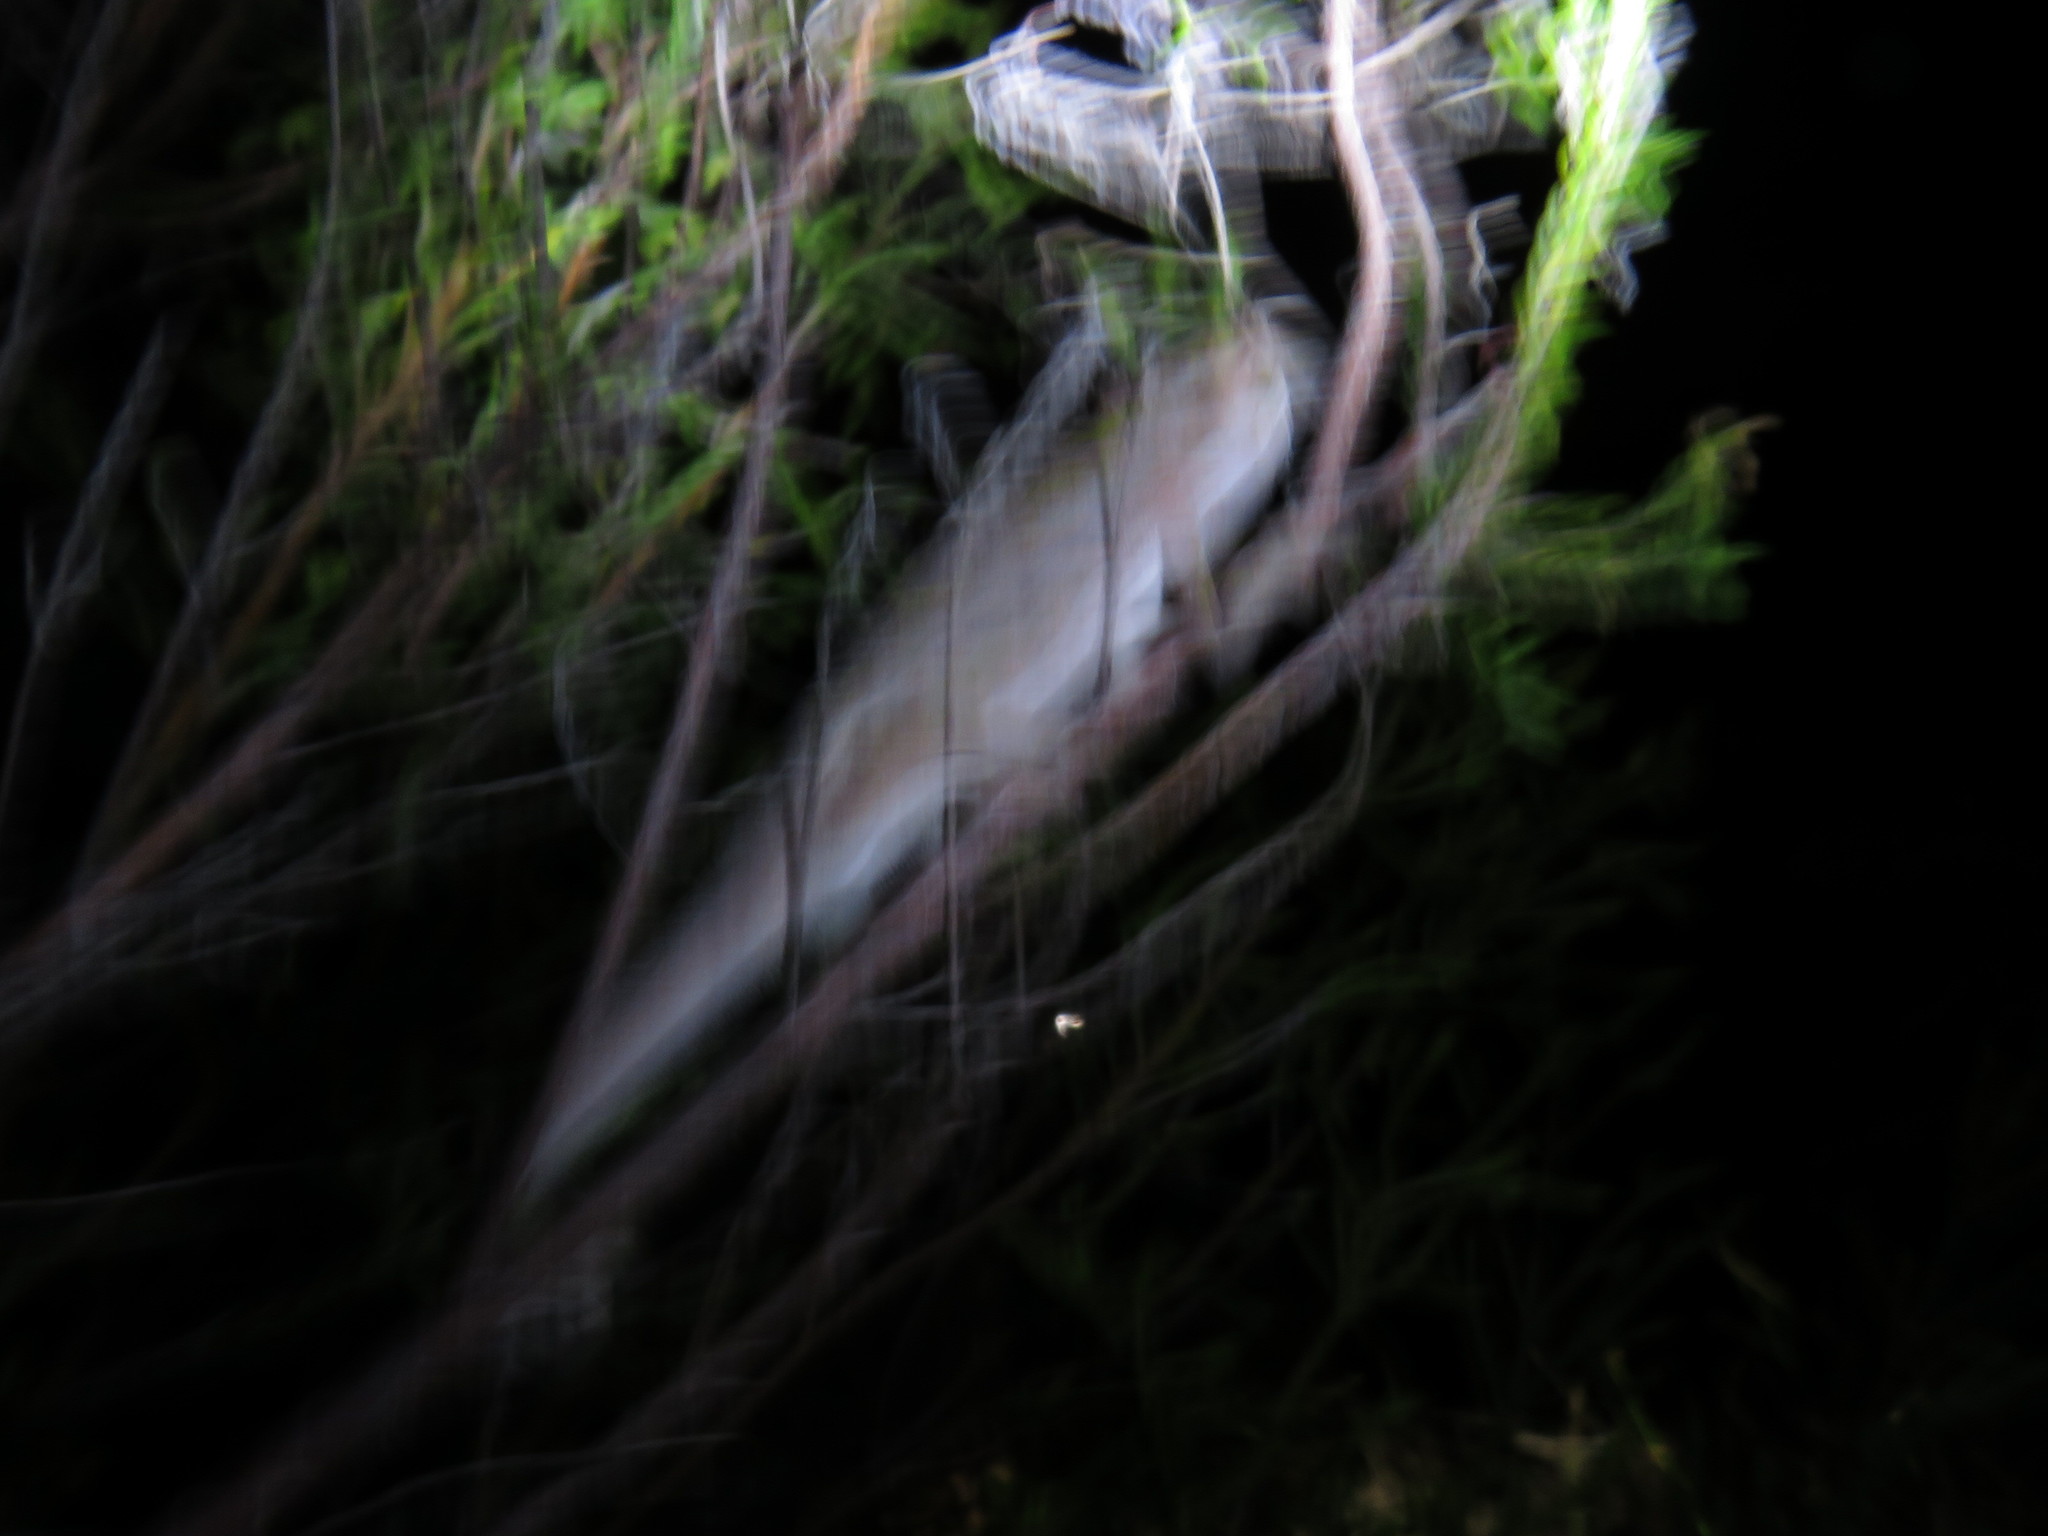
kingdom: Animalia
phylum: Chordata
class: Squamata
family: Chamaeleonidae
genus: Bradypodion
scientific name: Bradypodion pumilum
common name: Cape dwarf chameleon
